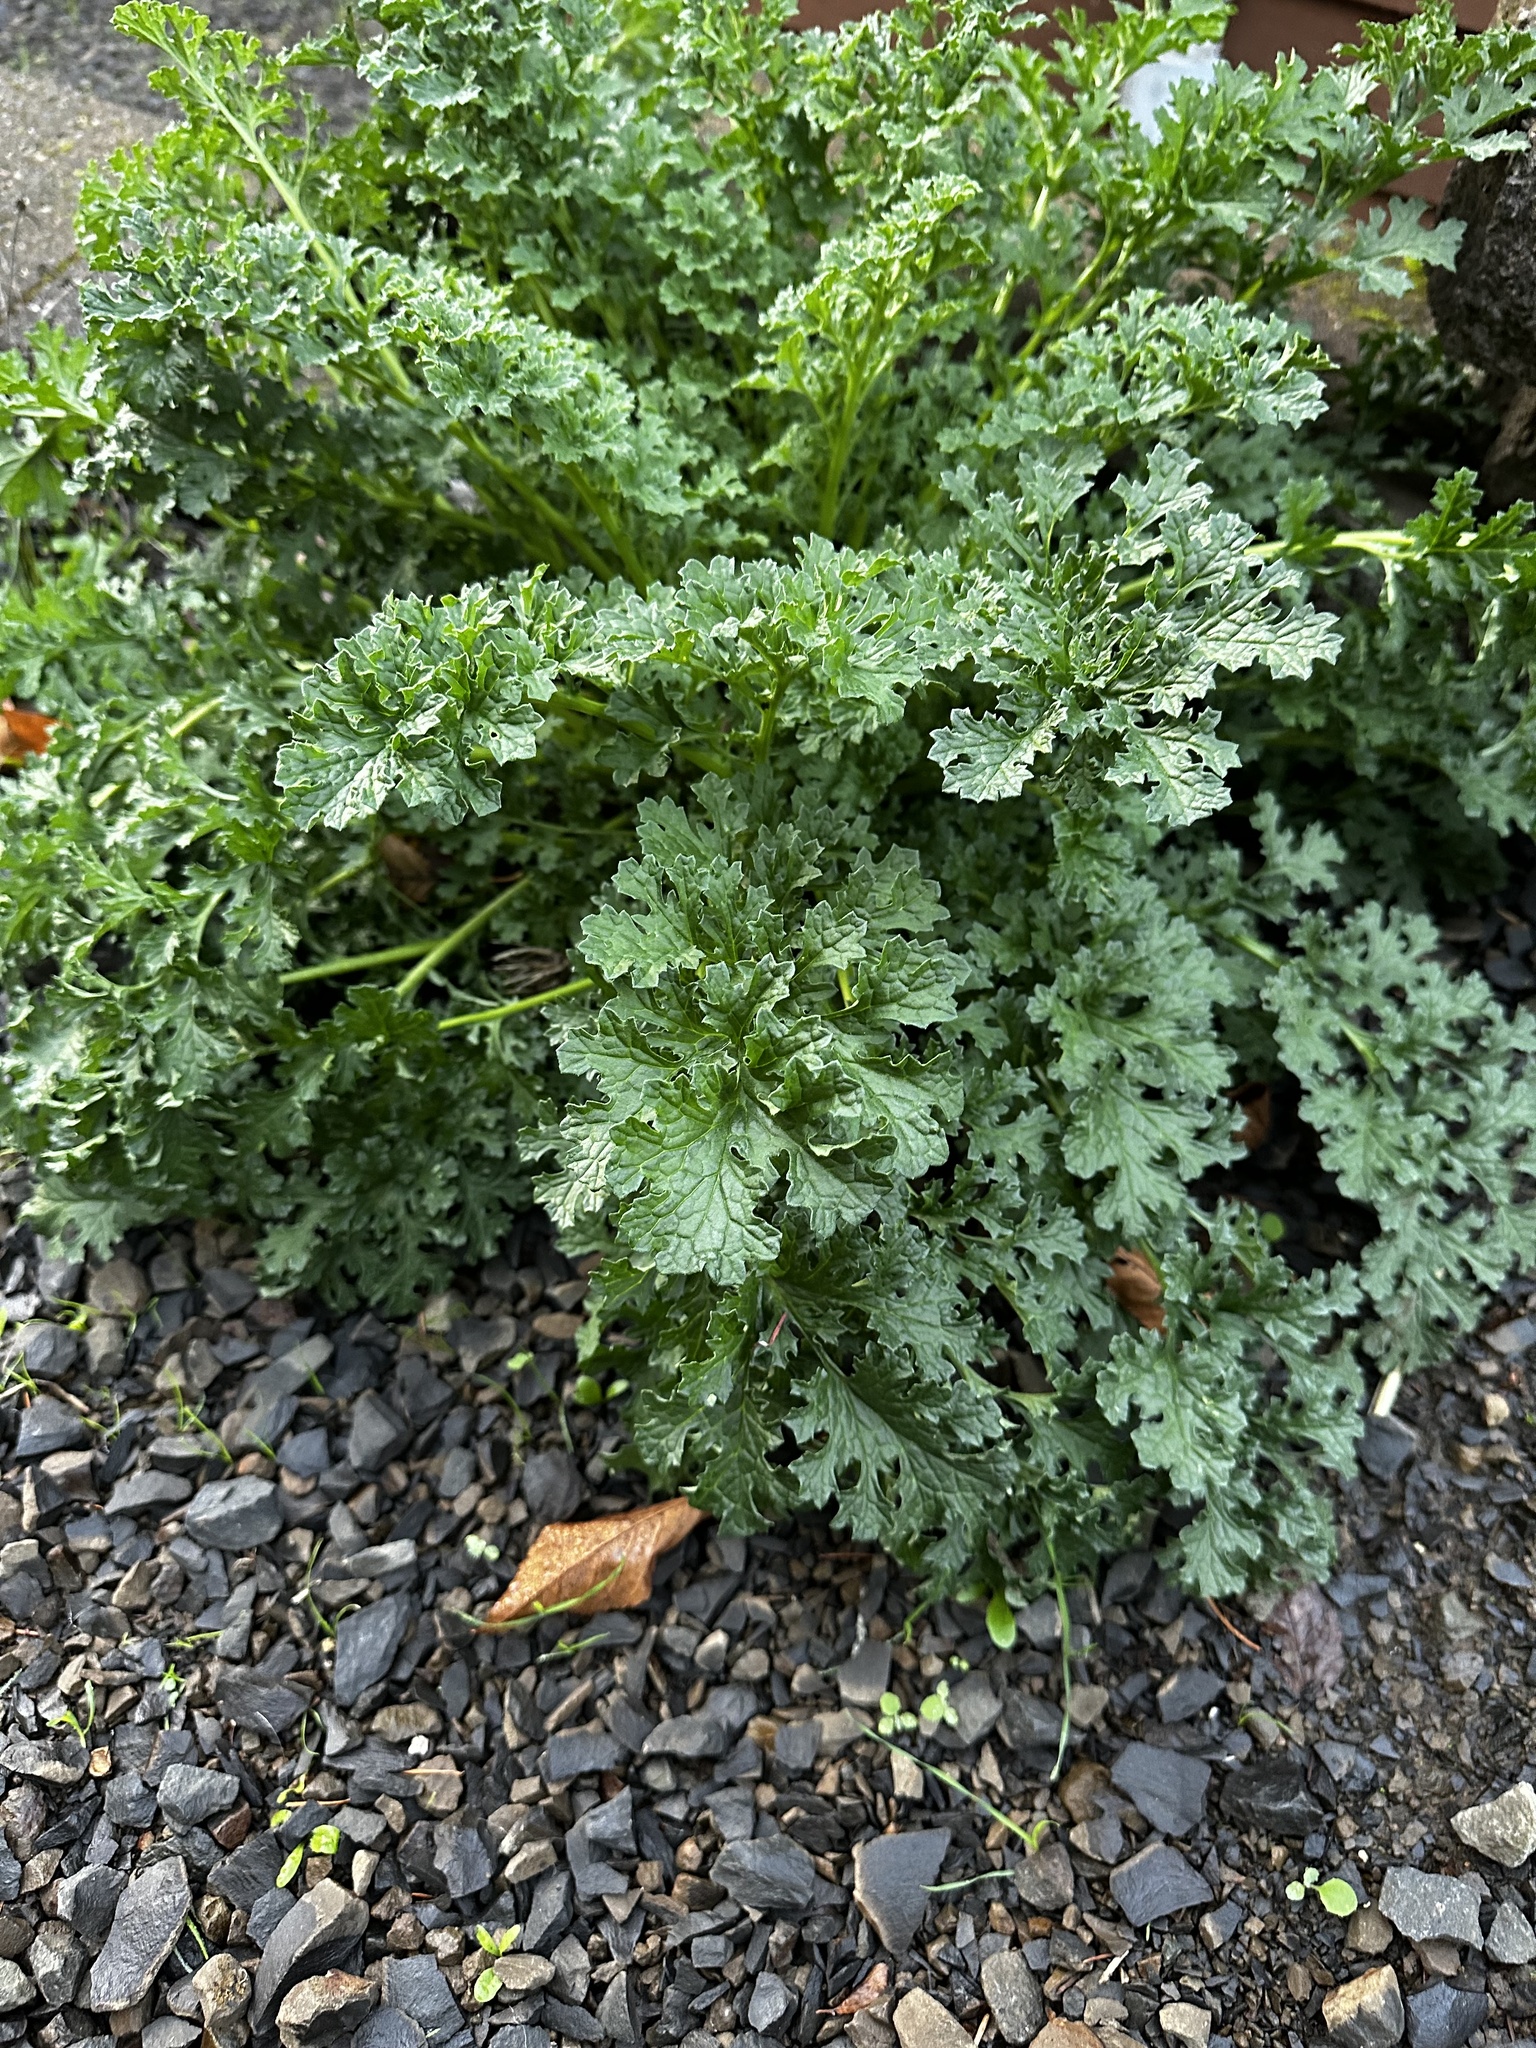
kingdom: Plantae
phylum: Tracheophyta
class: Magnoliopsida
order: Asterales
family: Asteraceae
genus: Jacobaea
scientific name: Jacobaea vulgaris
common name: Stinking willie
